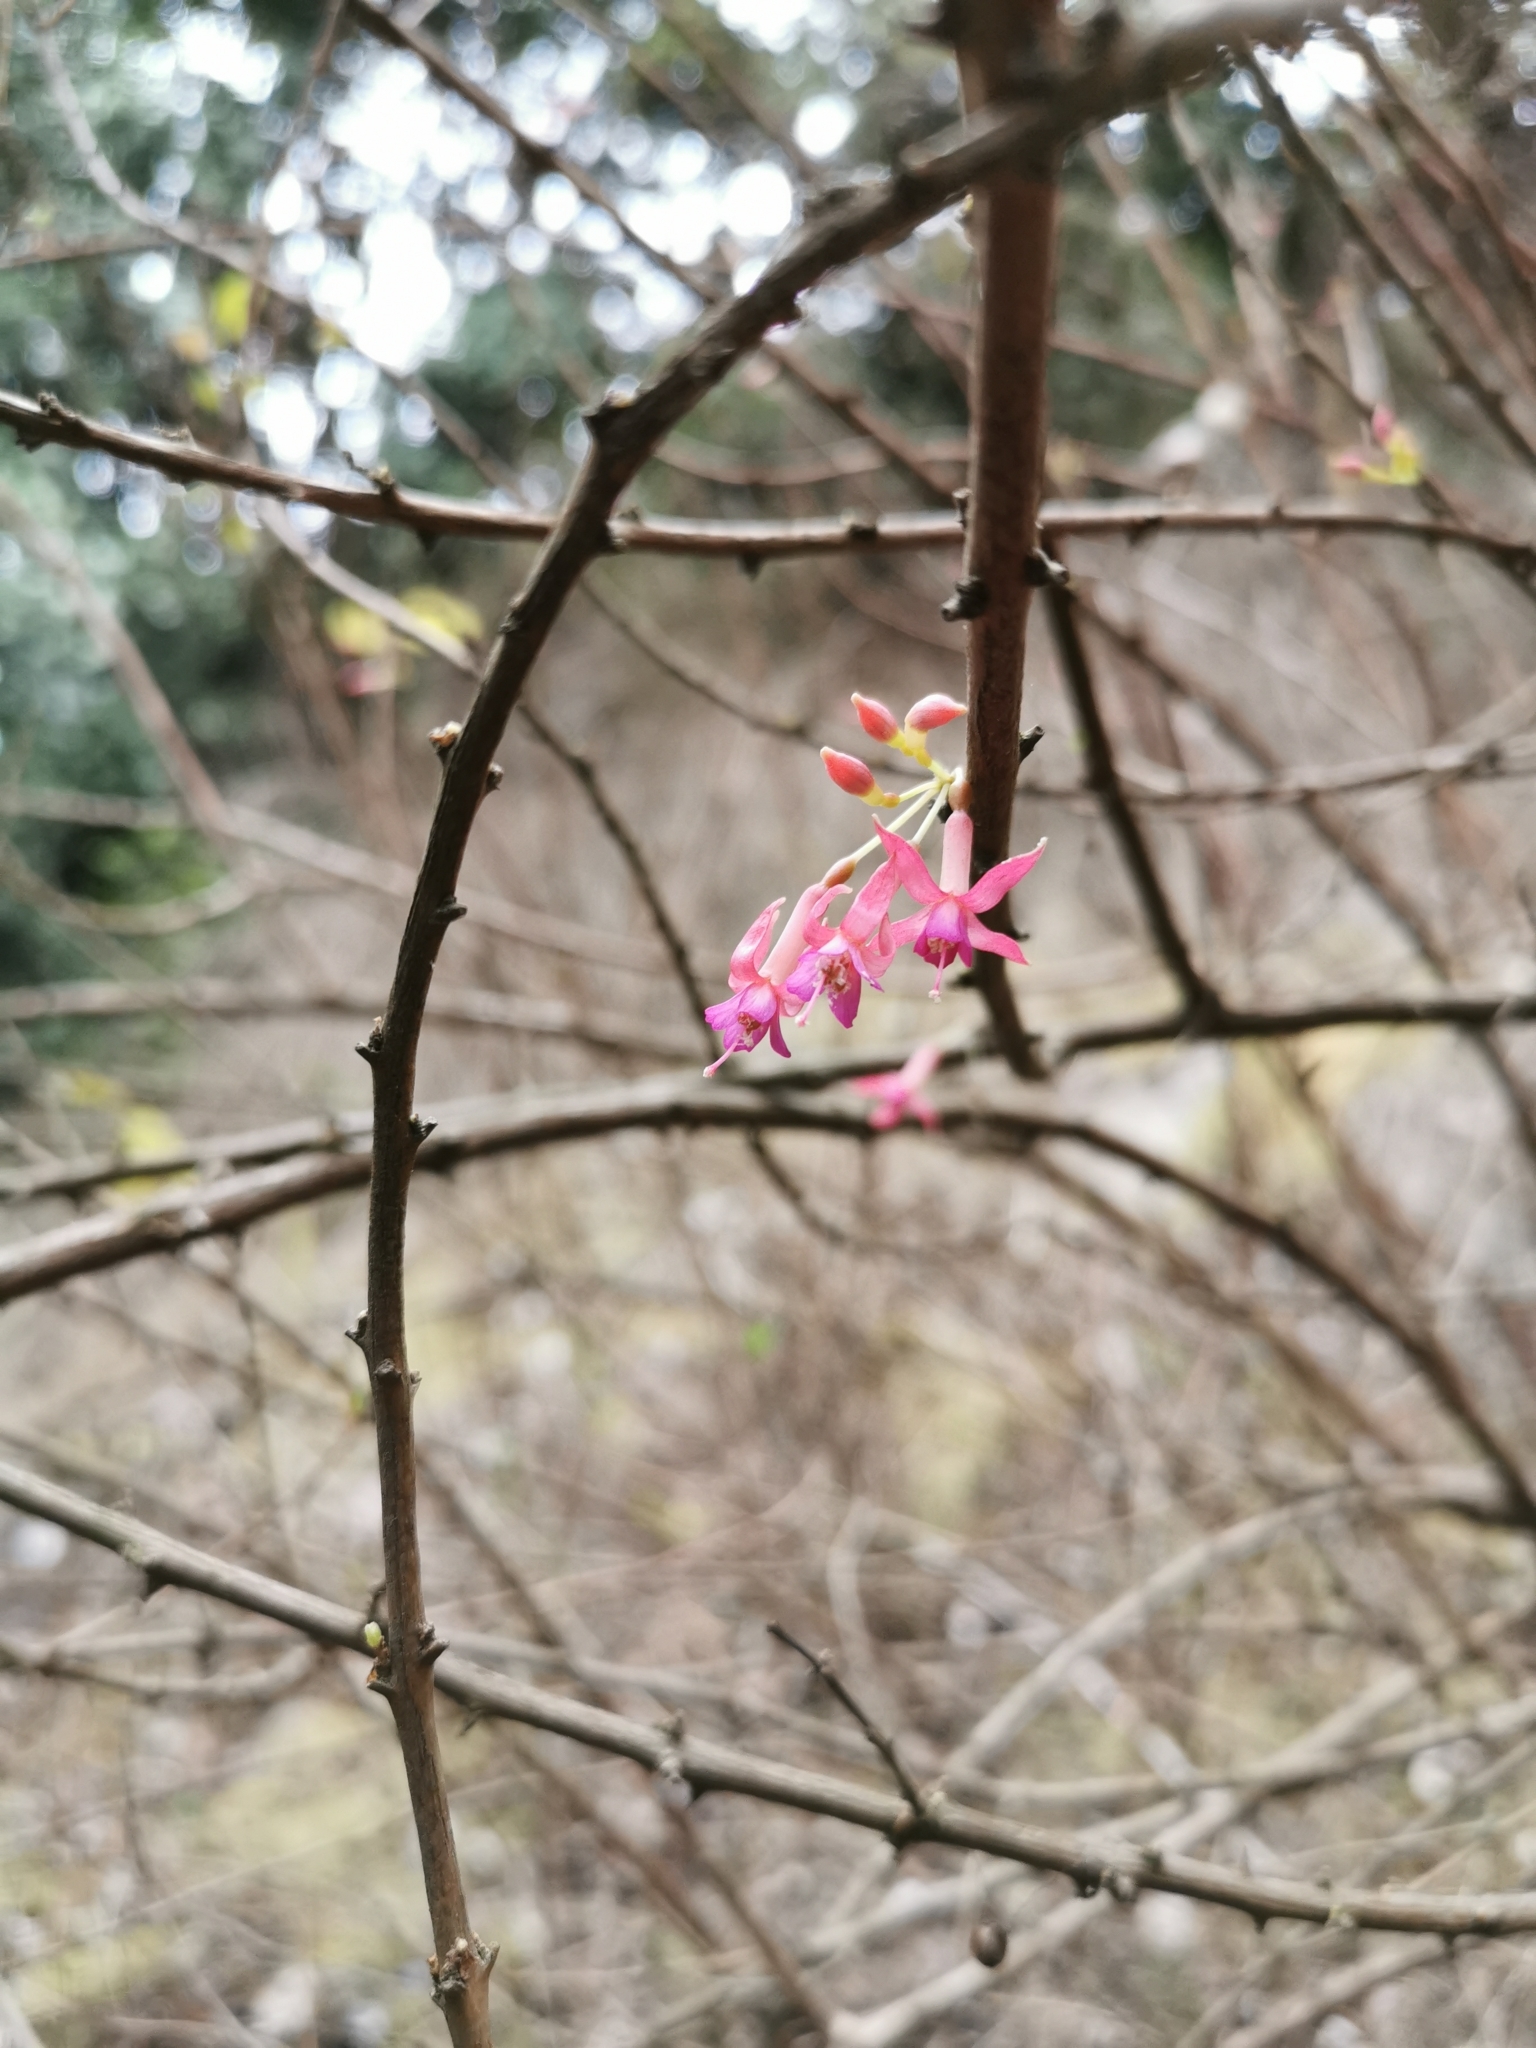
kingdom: Plantae
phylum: Tracheophyta
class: Magnoliopsida
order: Myrtales
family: Onagraceae
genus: Fuchsia
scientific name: Fuchsia lycioides
